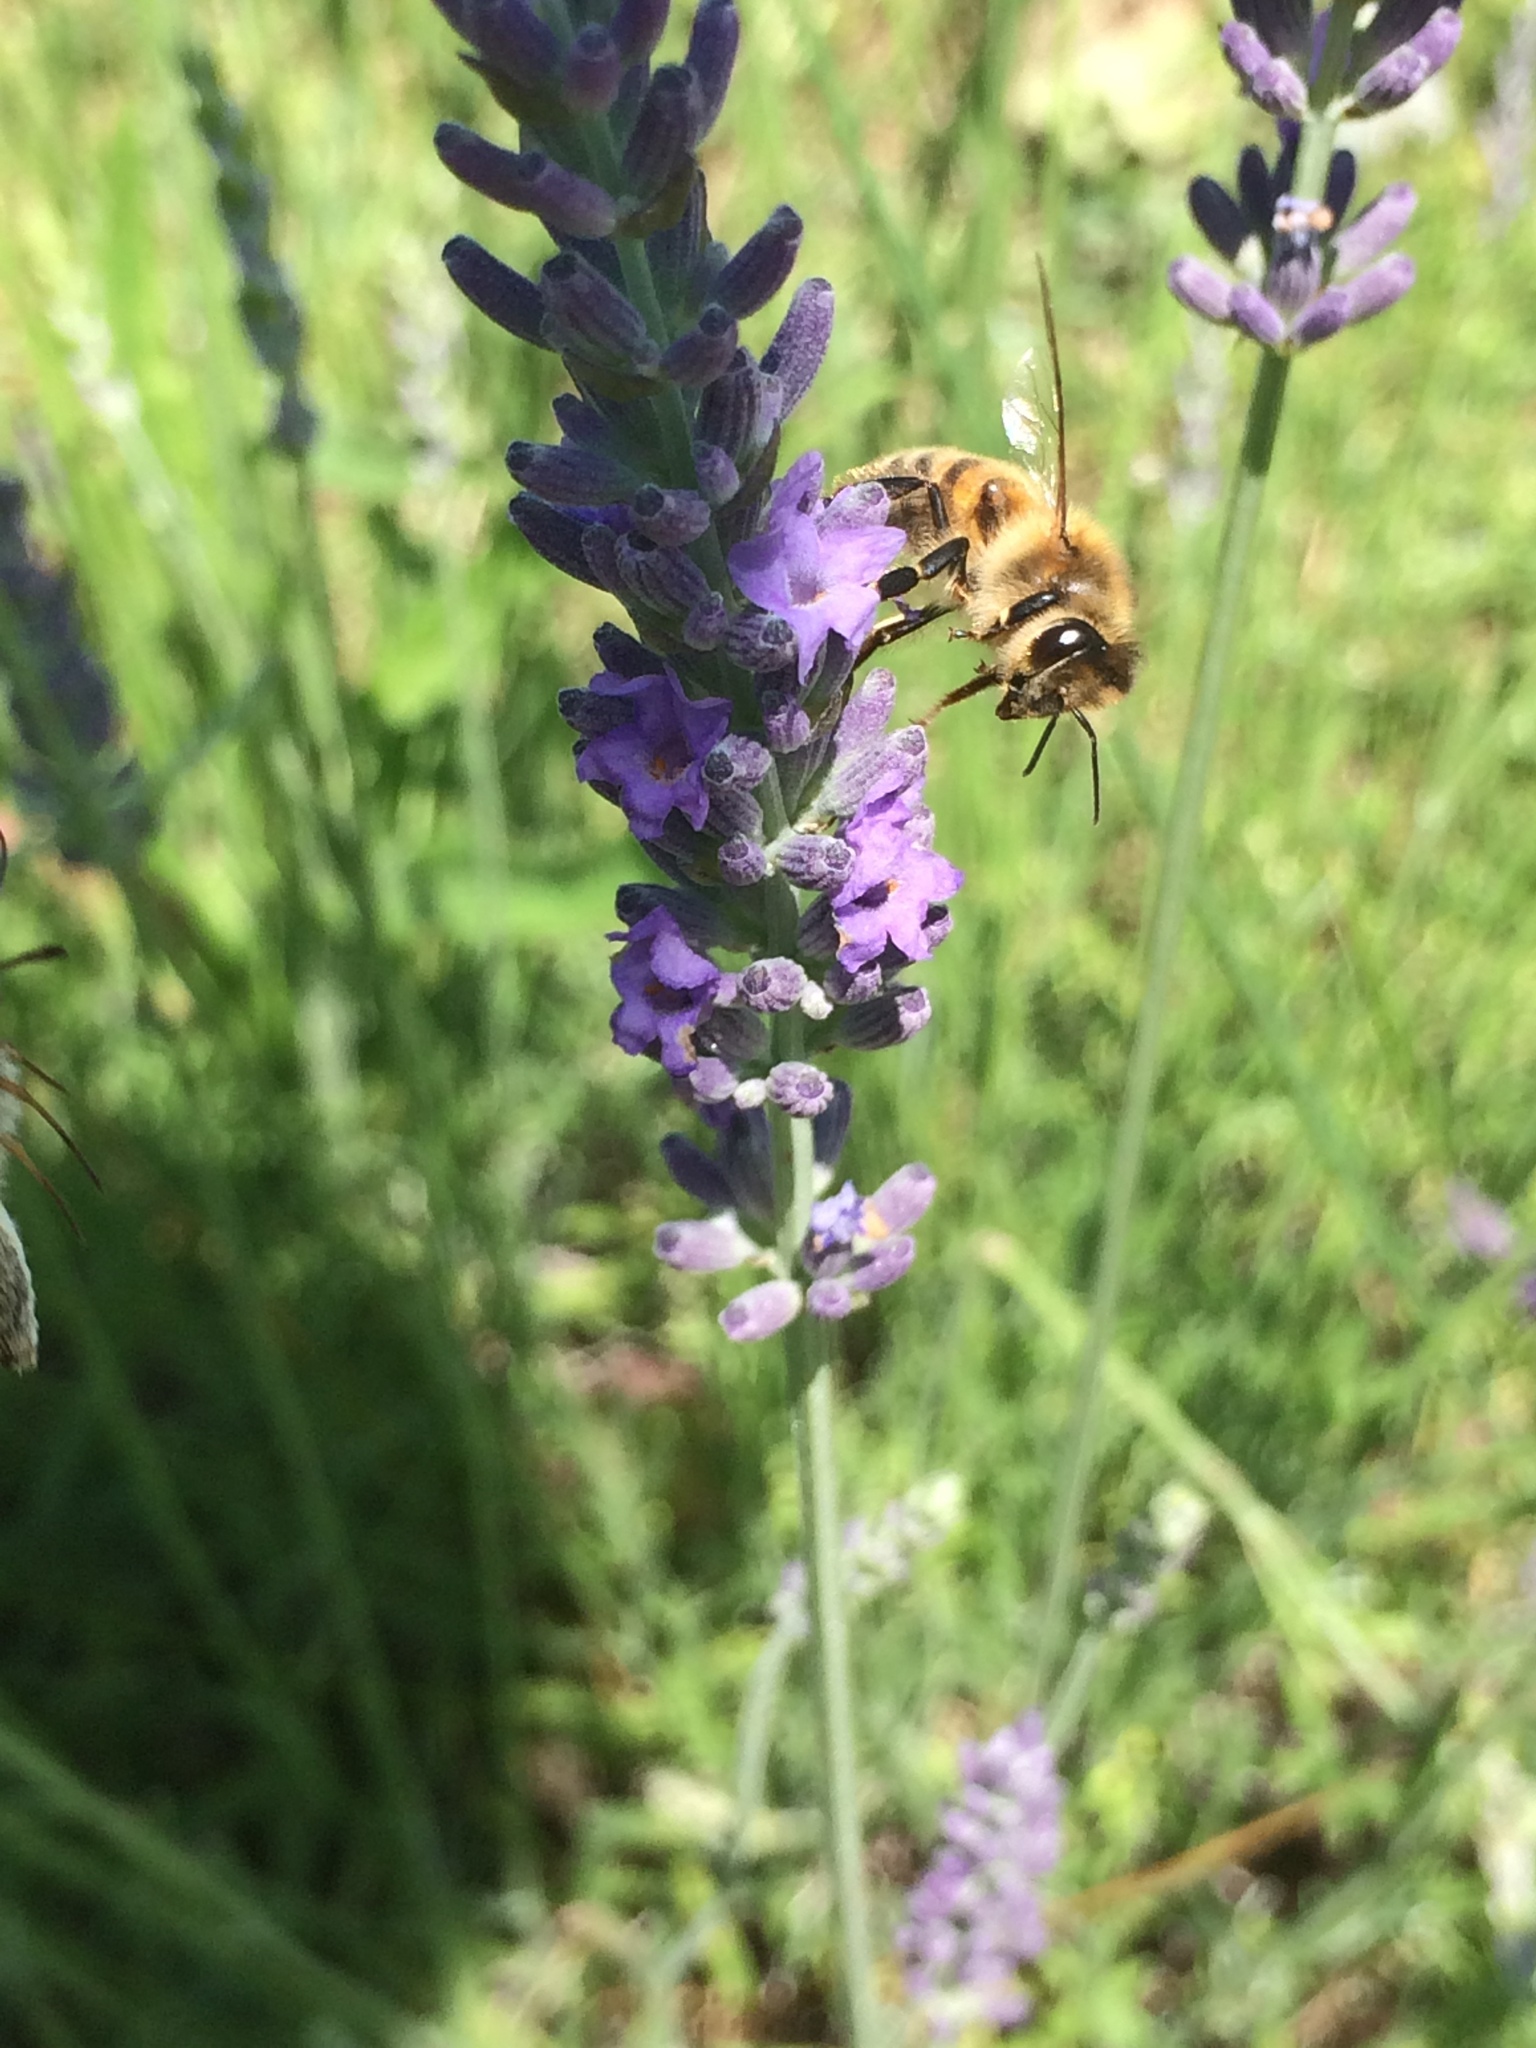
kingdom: Animalia
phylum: Arthropoda
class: Insecta
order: Hymenoptera
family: Apidae
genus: Apis
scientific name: Apis mellifera
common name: Honey bee
